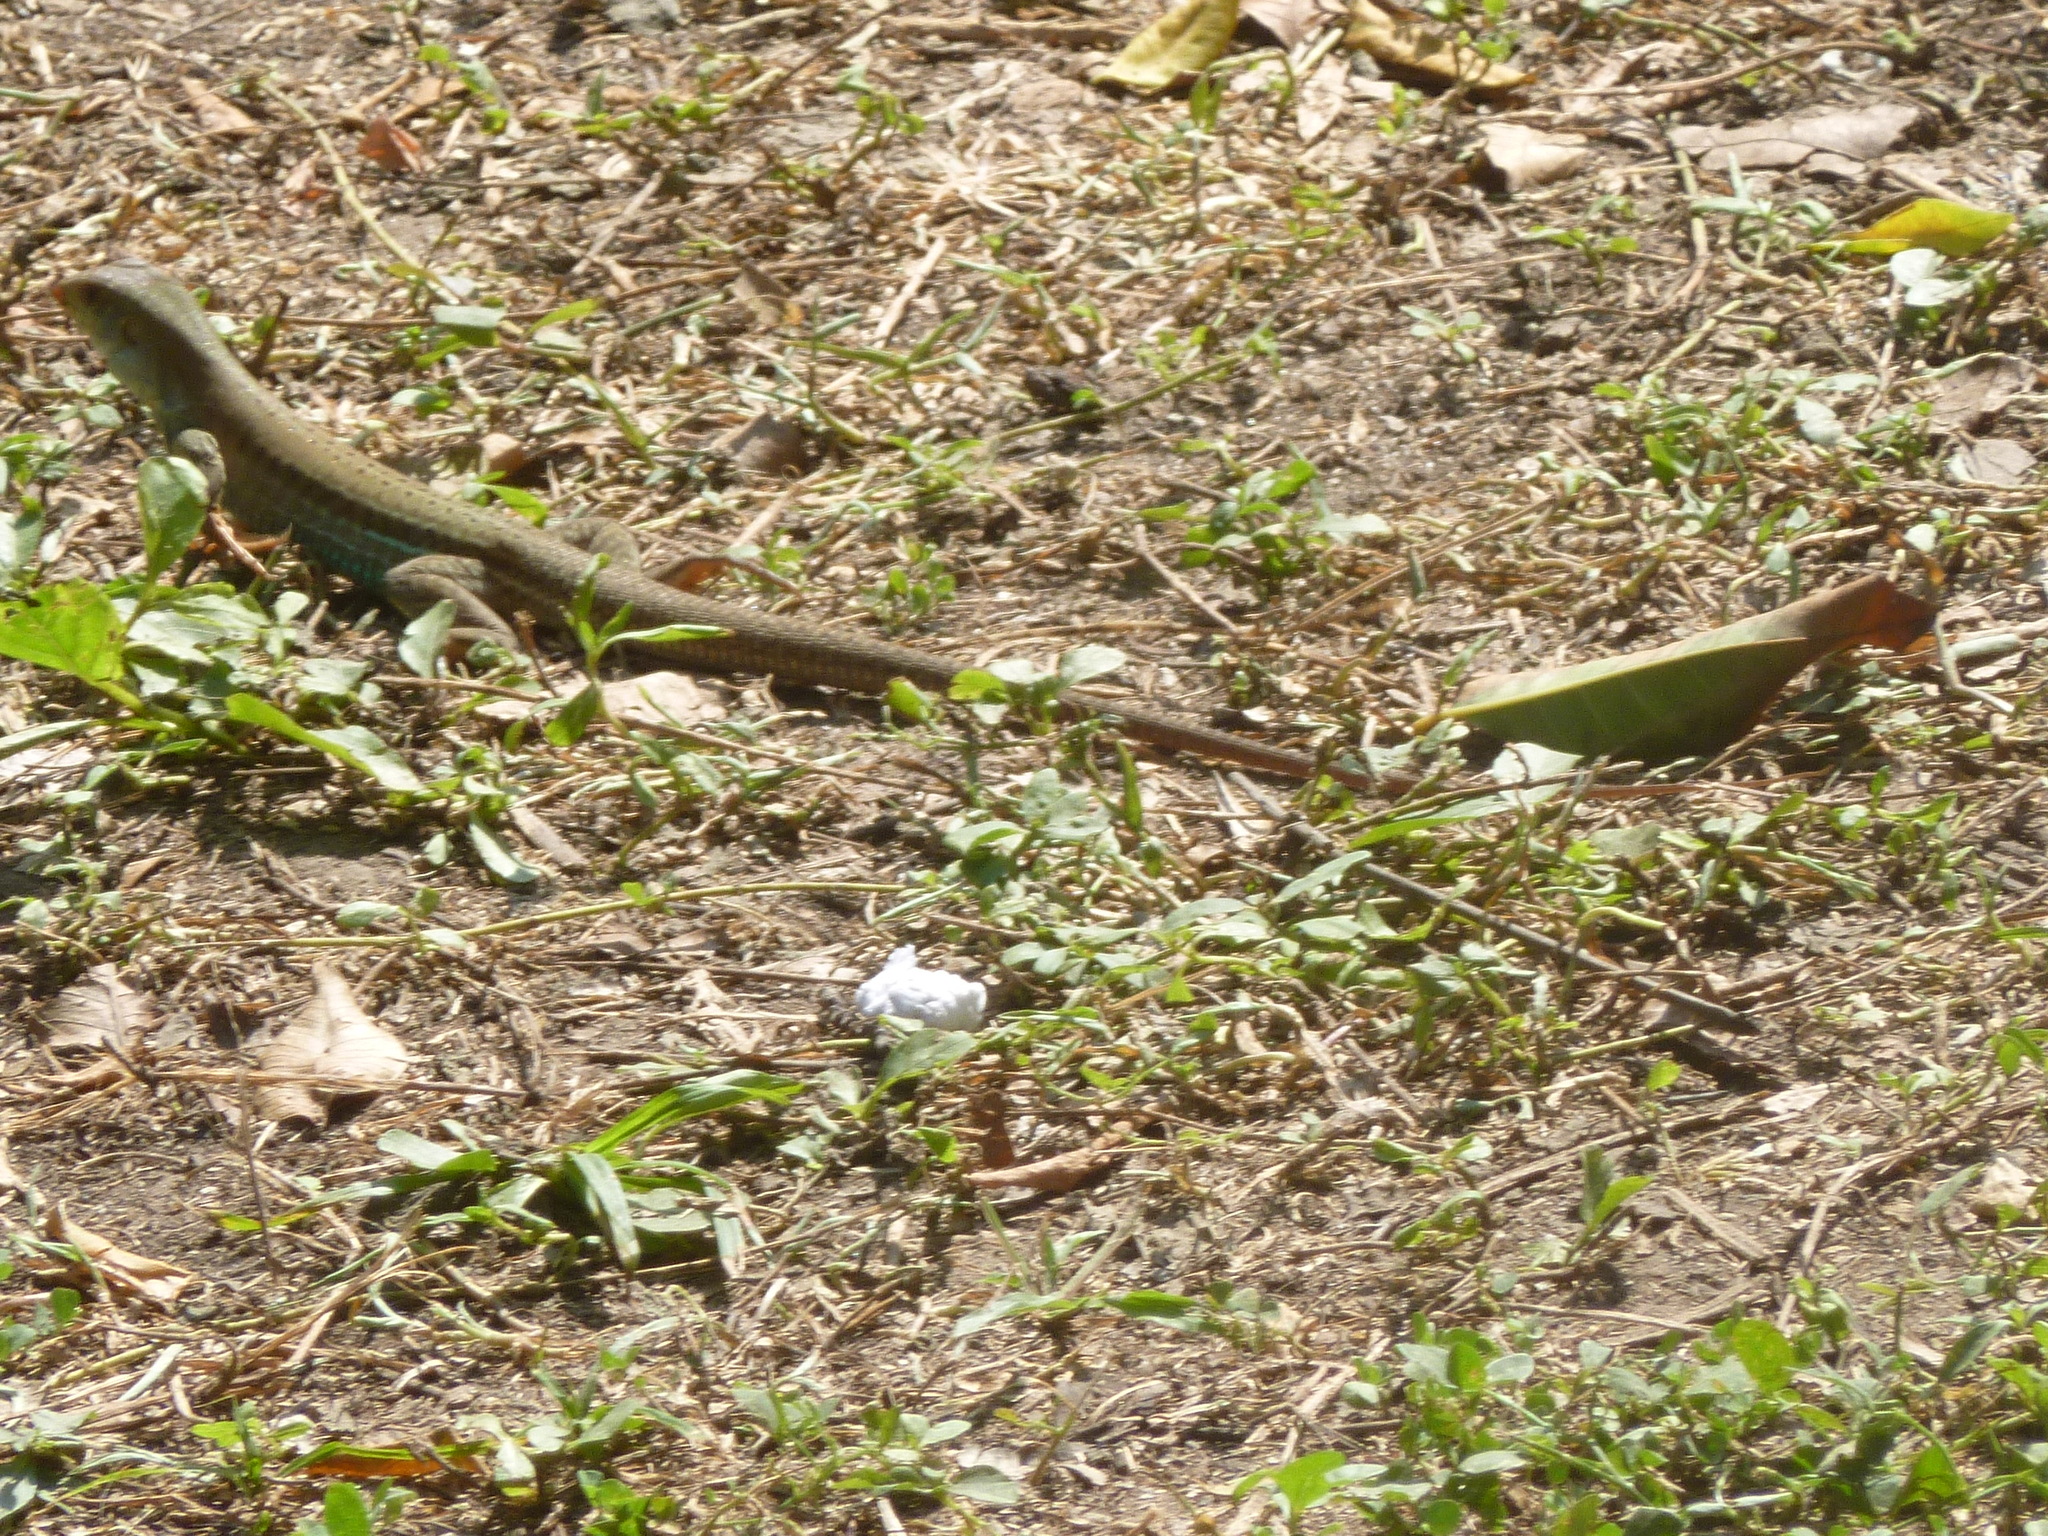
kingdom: Animalia
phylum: Chordata
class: Squamata
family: Teiidae
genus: Ameiva
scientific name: Ameiva bifrontata
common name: Cope's ameiva
